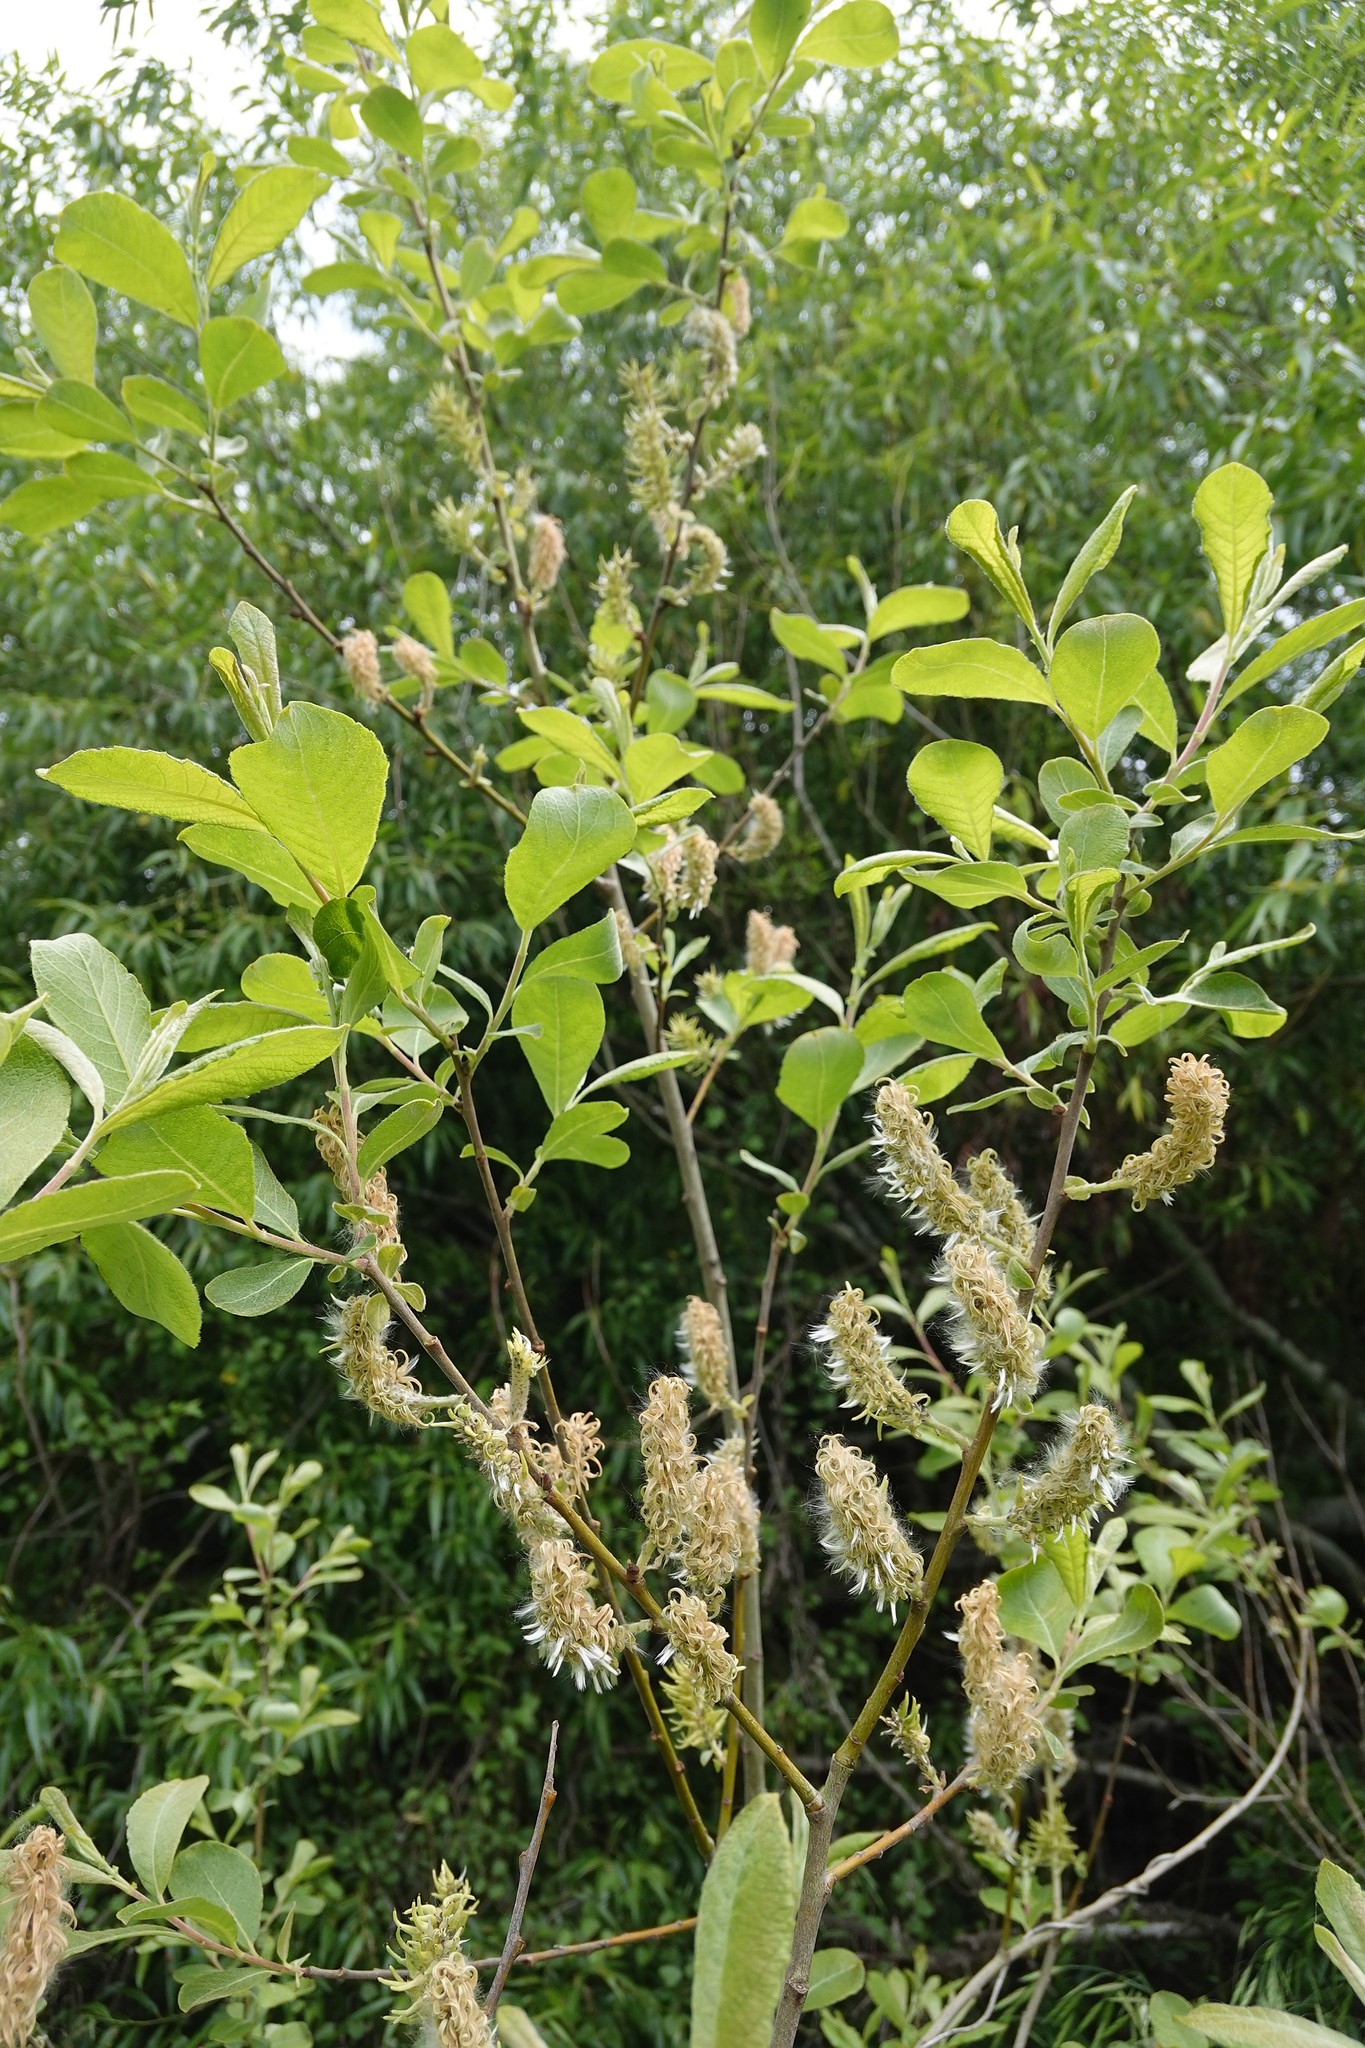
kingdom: Plantae
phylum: Tracheophyta
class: Magnoliopsida
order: Malpighiales
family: Salicaceae
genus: Salix
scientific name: Salix cinerea
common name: Common sallow
